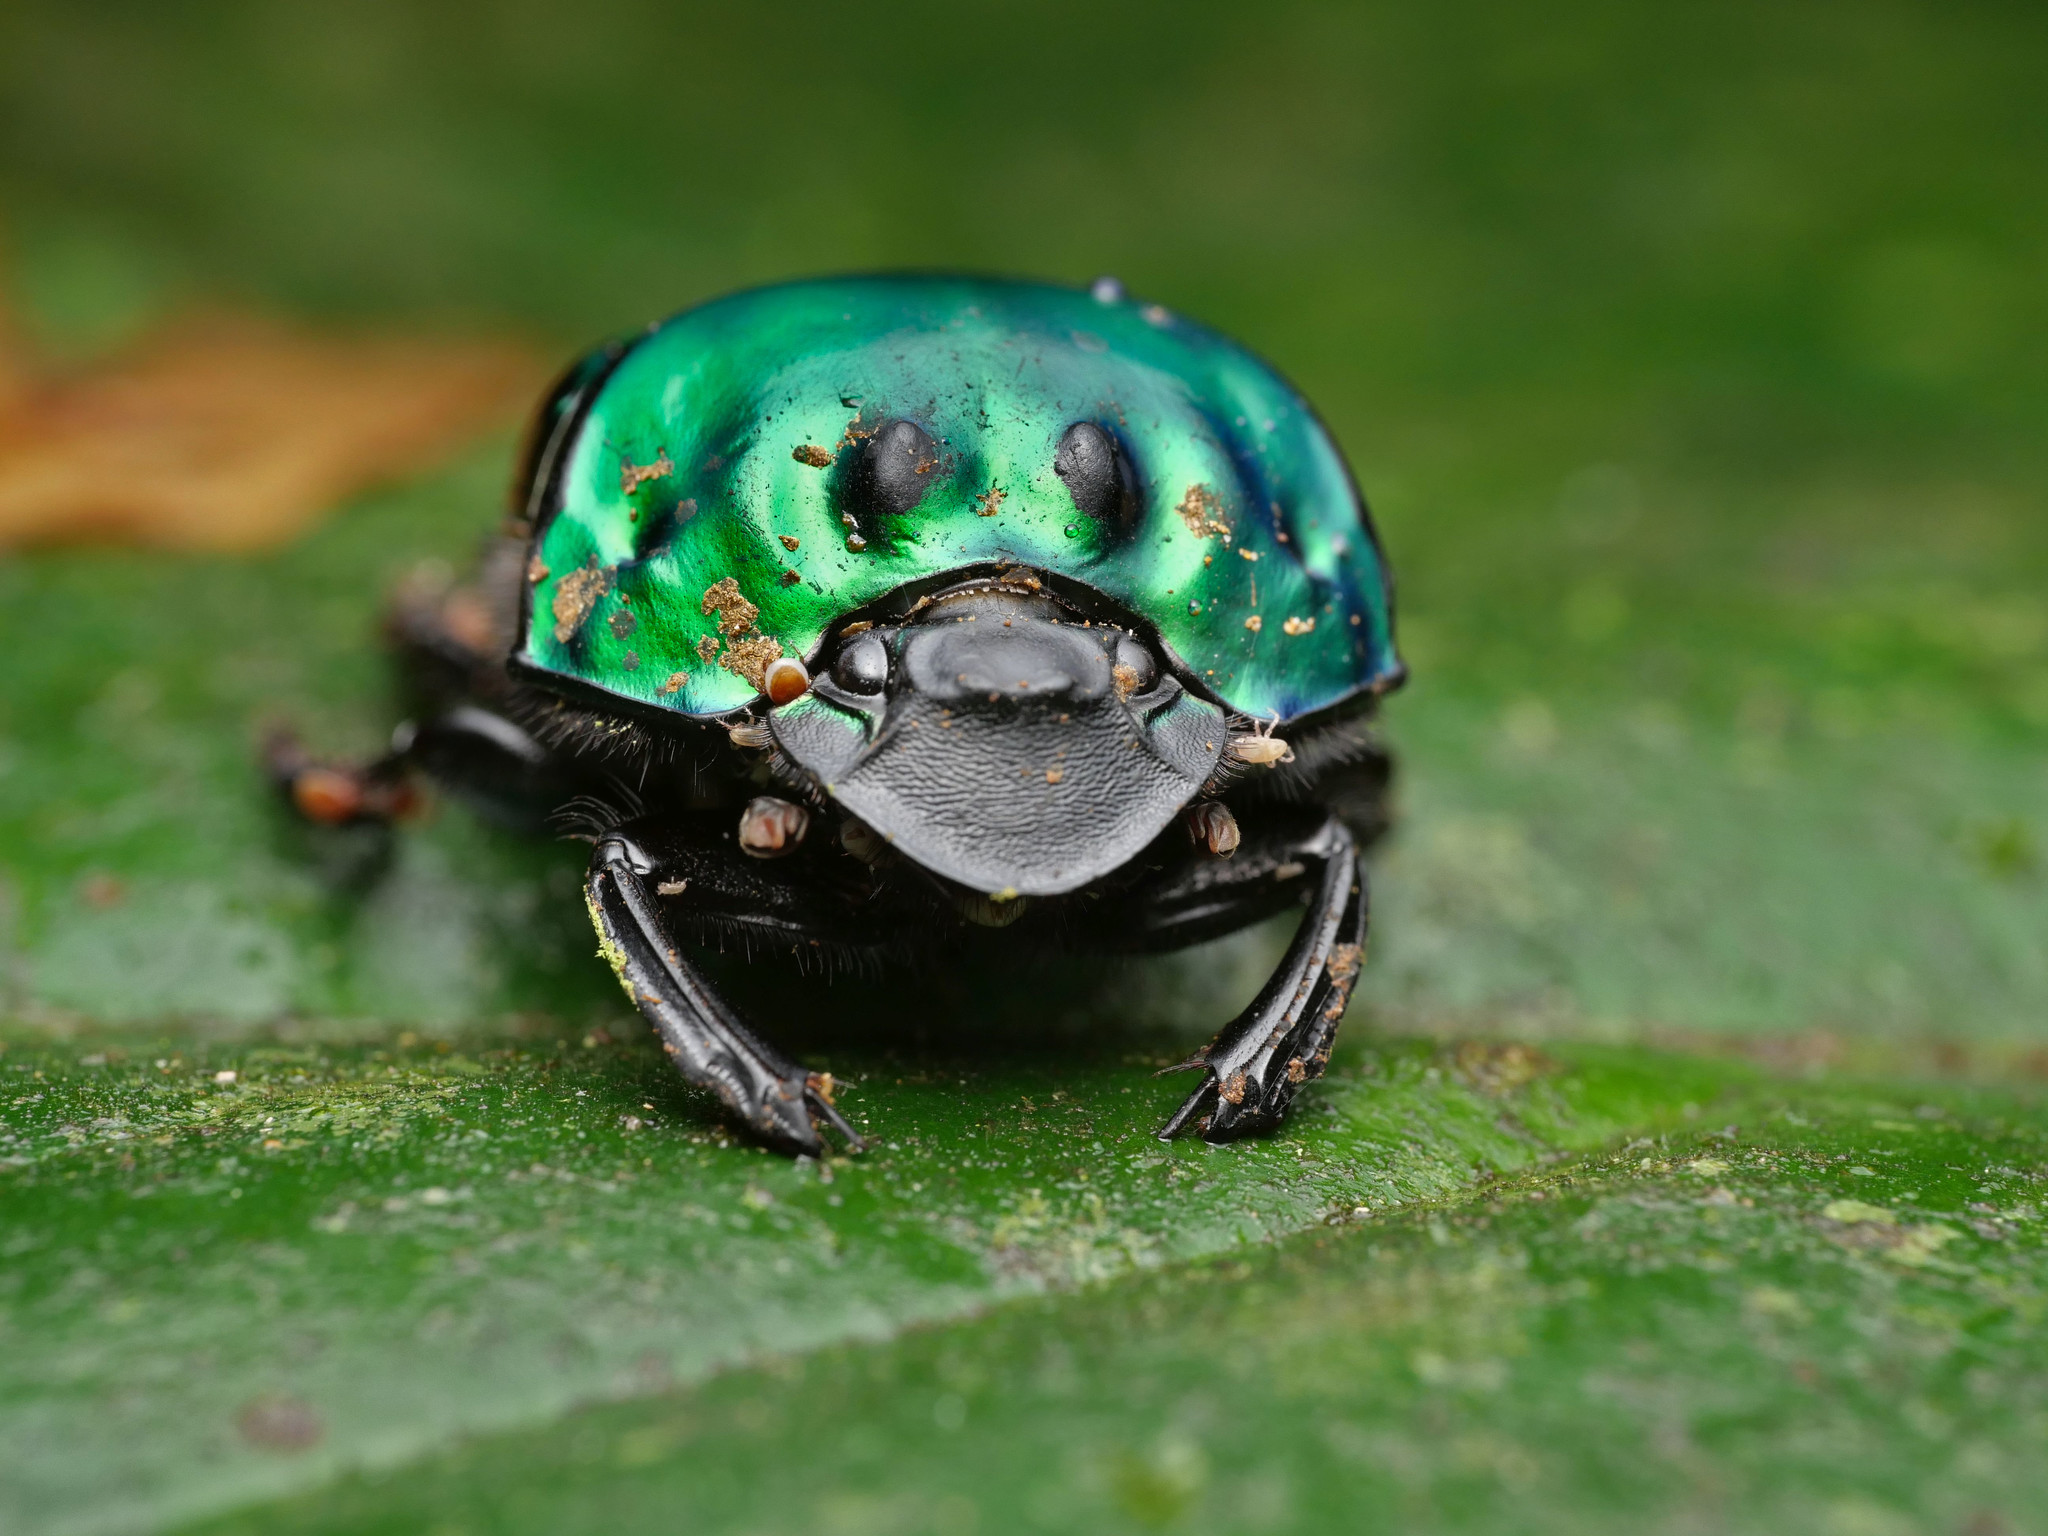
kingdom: Animalia
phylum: Arthropoda
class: Insecta
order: Coleoptera
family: Scarabaeidae
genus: Oxysternon
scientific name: Oxysternon conspicillatum
